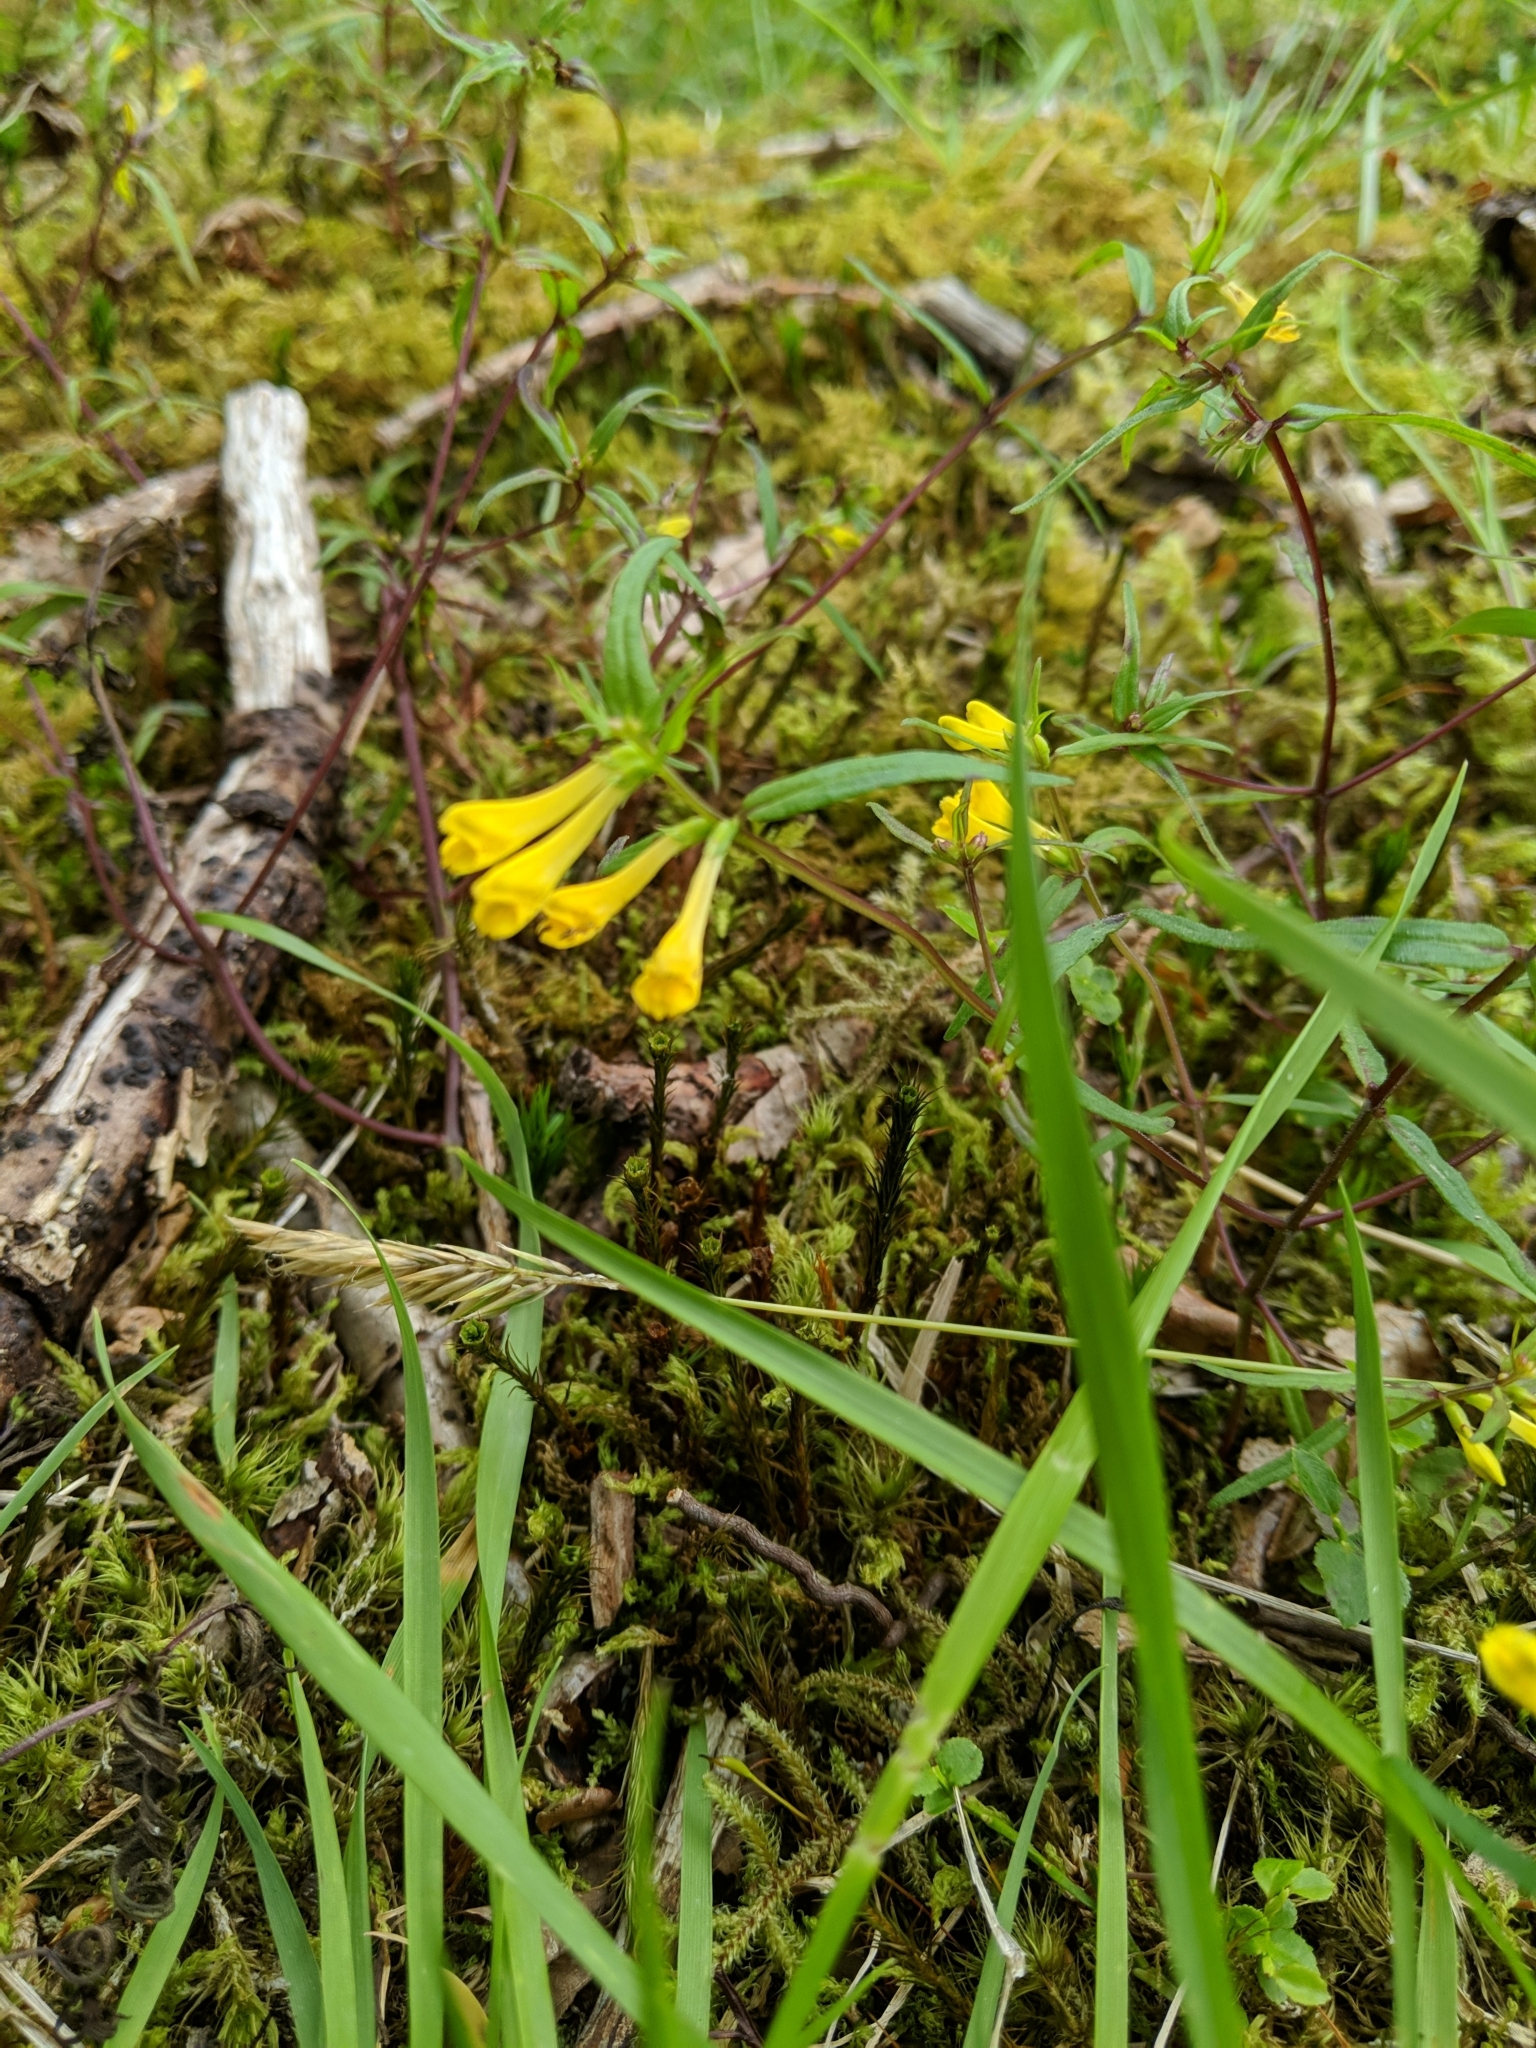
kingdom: Plantae
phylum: Tracheophyta
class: Magnoliopsida
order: Lamiales
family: Orobanchaceae
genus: Melampyrum
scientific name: Melampyrum pratense
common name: Common cow-wheat
